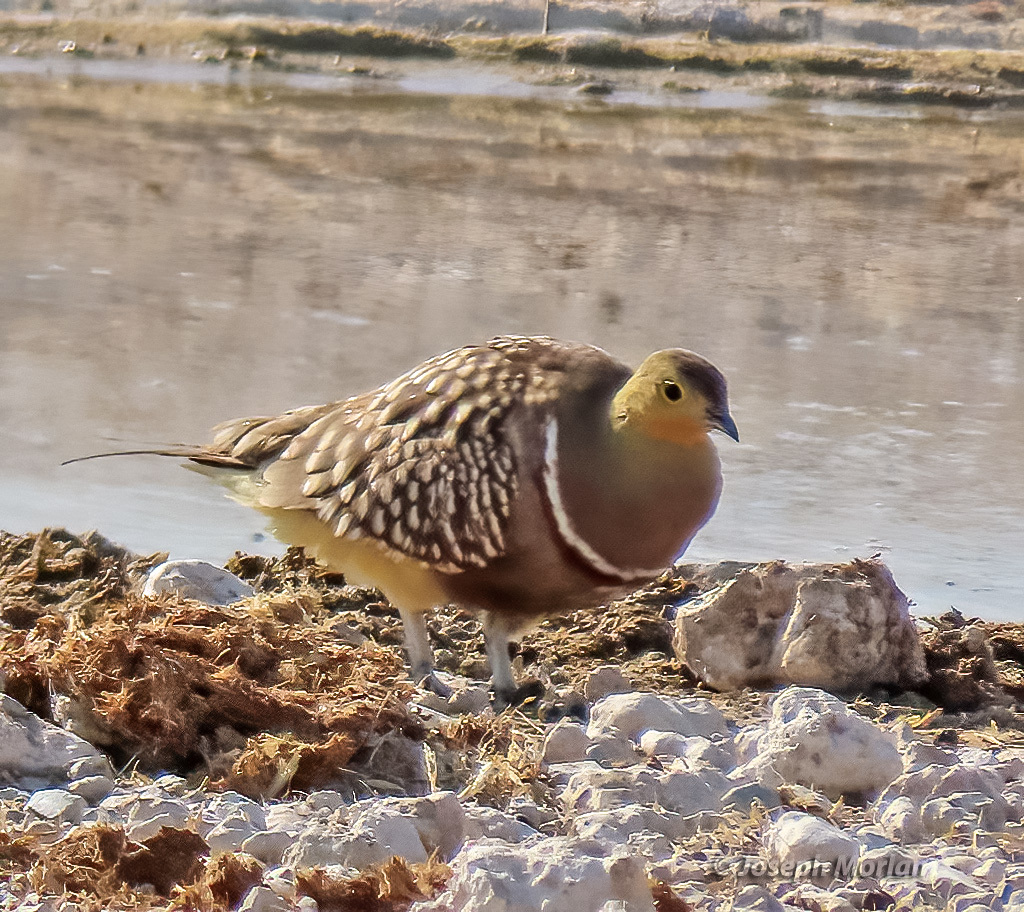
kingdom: Animalia
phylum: Chordata
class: Aves
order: Pteroclidiformes
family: Pteroclididae
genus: Pterocles
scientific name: Pterocles namaqua
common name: Namaqua sandgrouse
